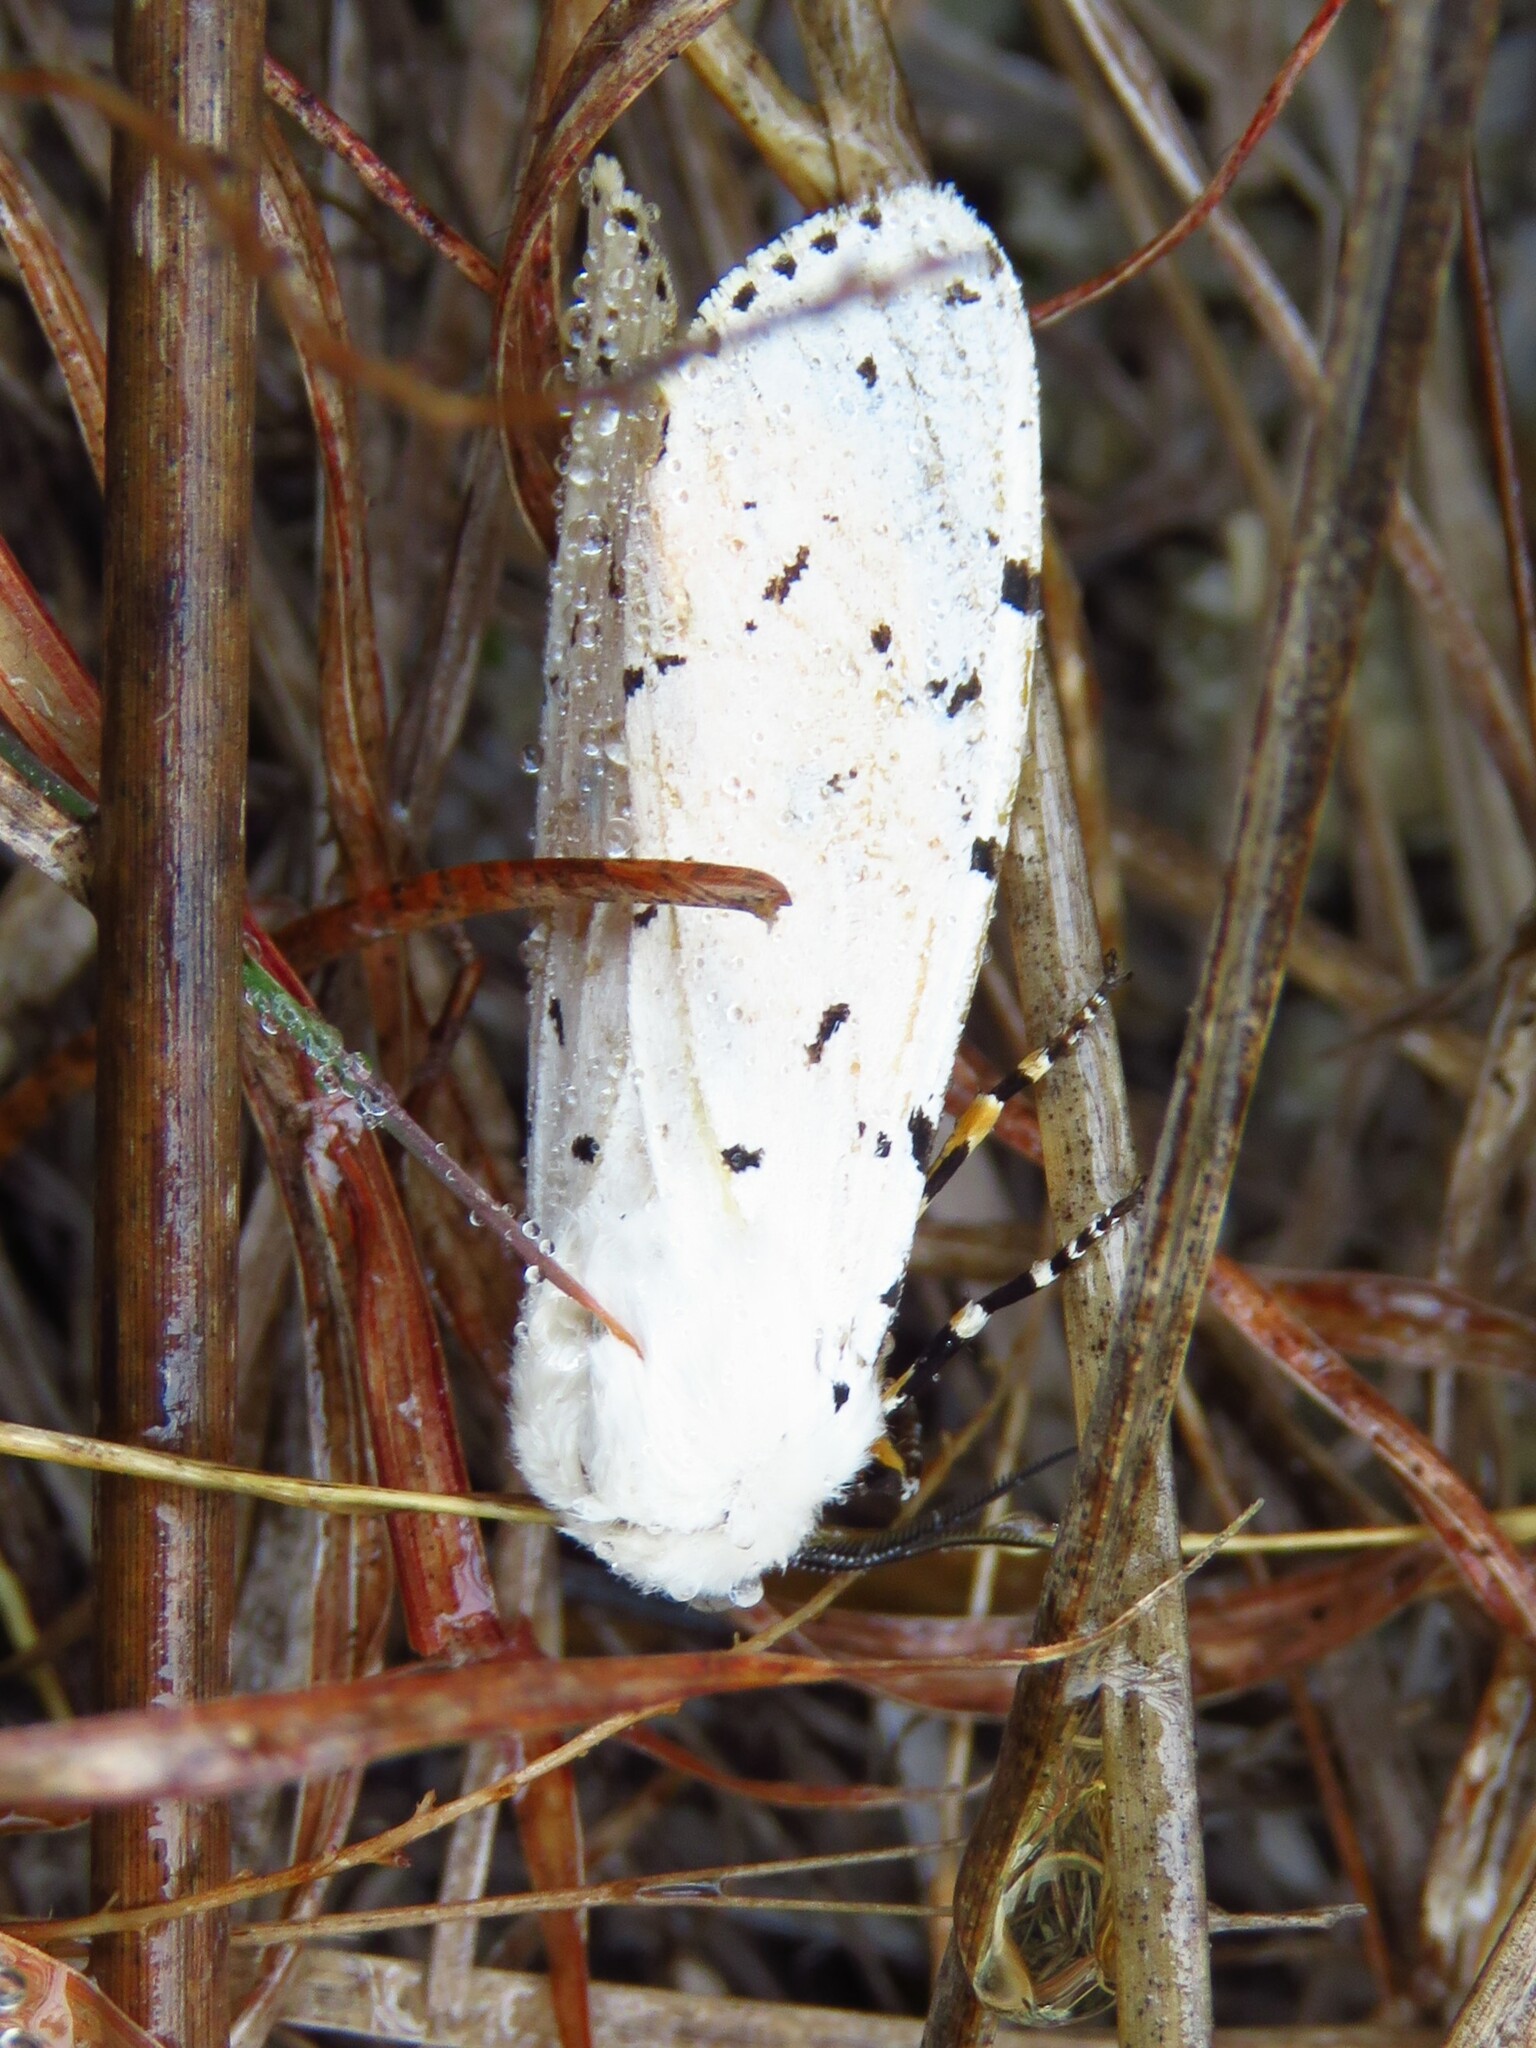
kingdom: Animalia
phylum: Arthropoda
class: Insecta
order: Lepidoptera
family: Erebidae
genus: Estigmene
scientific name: Estigmene acrea
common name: Salt marsh moth
